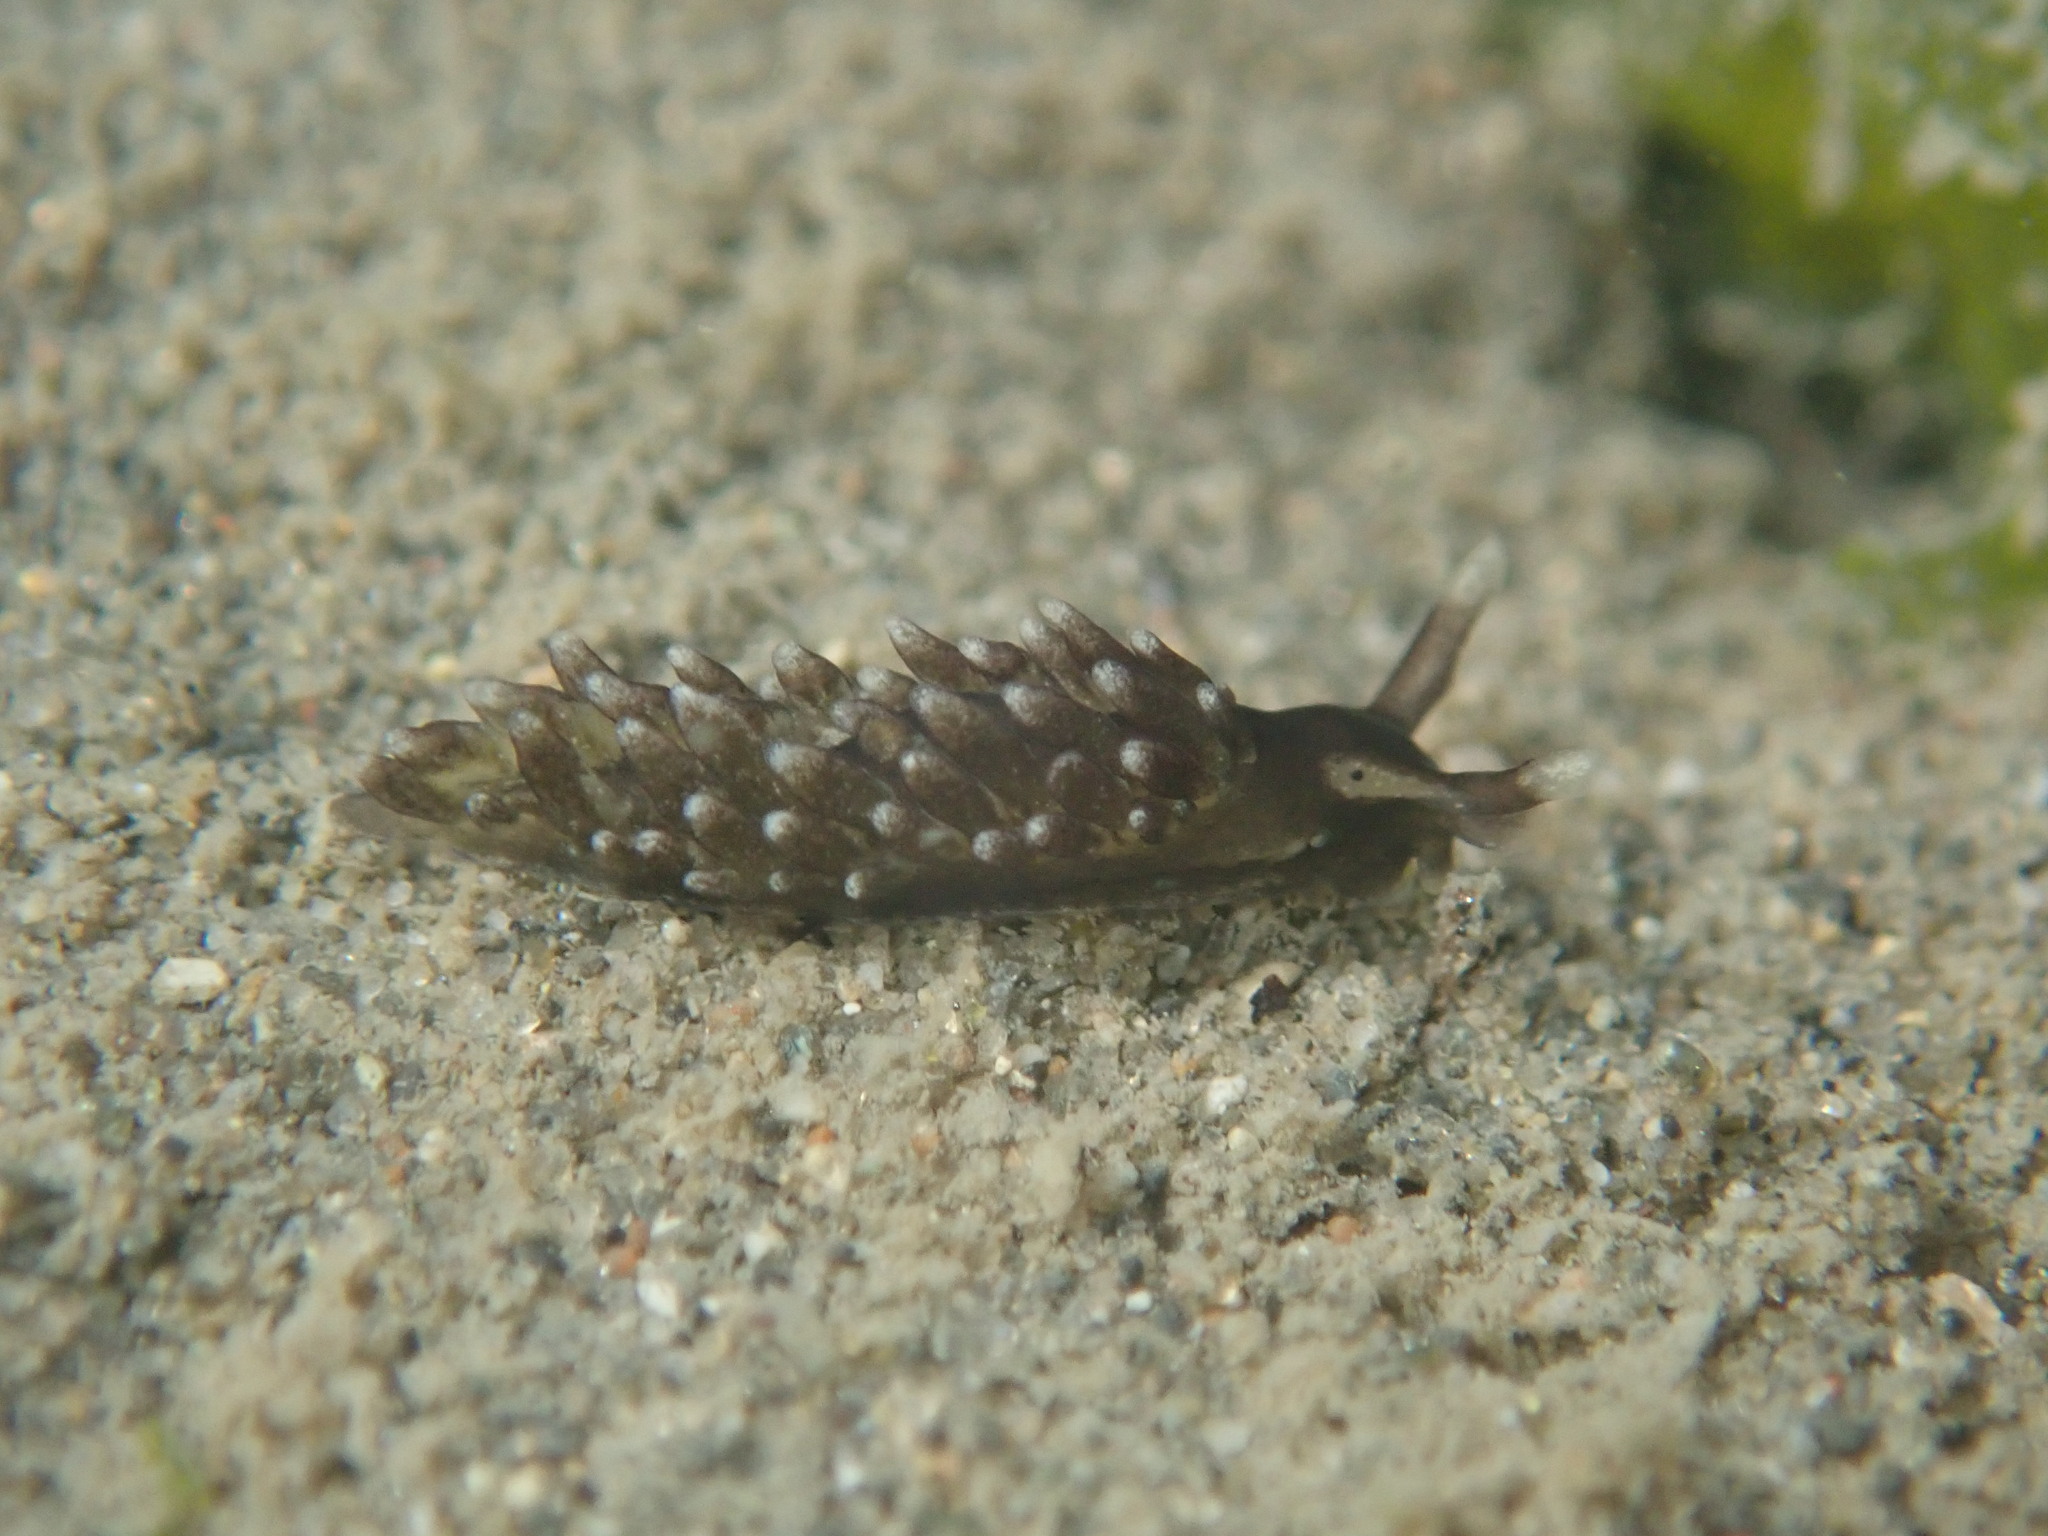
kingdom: Animalia
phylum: Mollusca
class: Gastropoda
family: Hermaeidae
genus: Aplysiopsis
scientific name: Aplysiopsis enteromorphae
